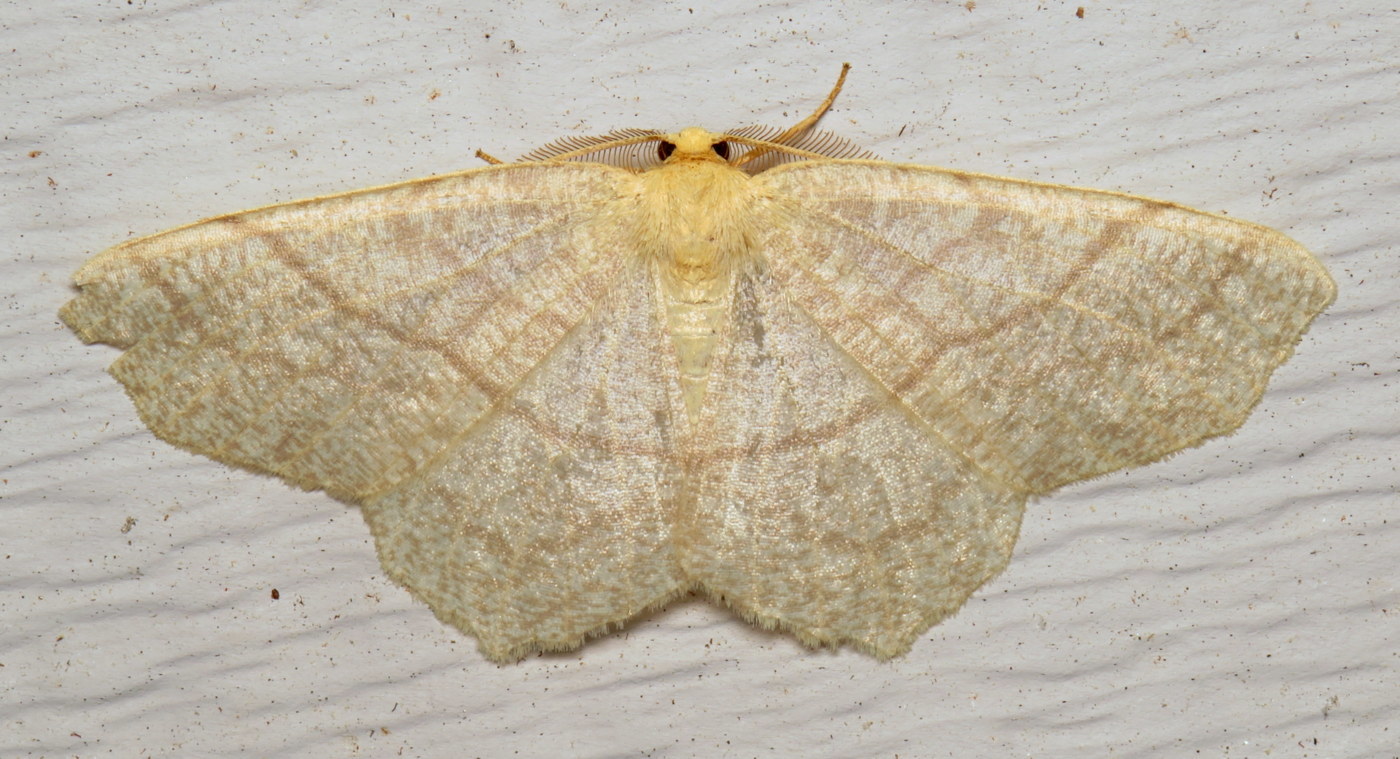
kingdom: Animalia
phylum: Arthropoda
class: Insecta
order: Lepidoptera
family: Geometridae
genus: Besma
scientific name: Besma endropiaria
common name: Straw besma
